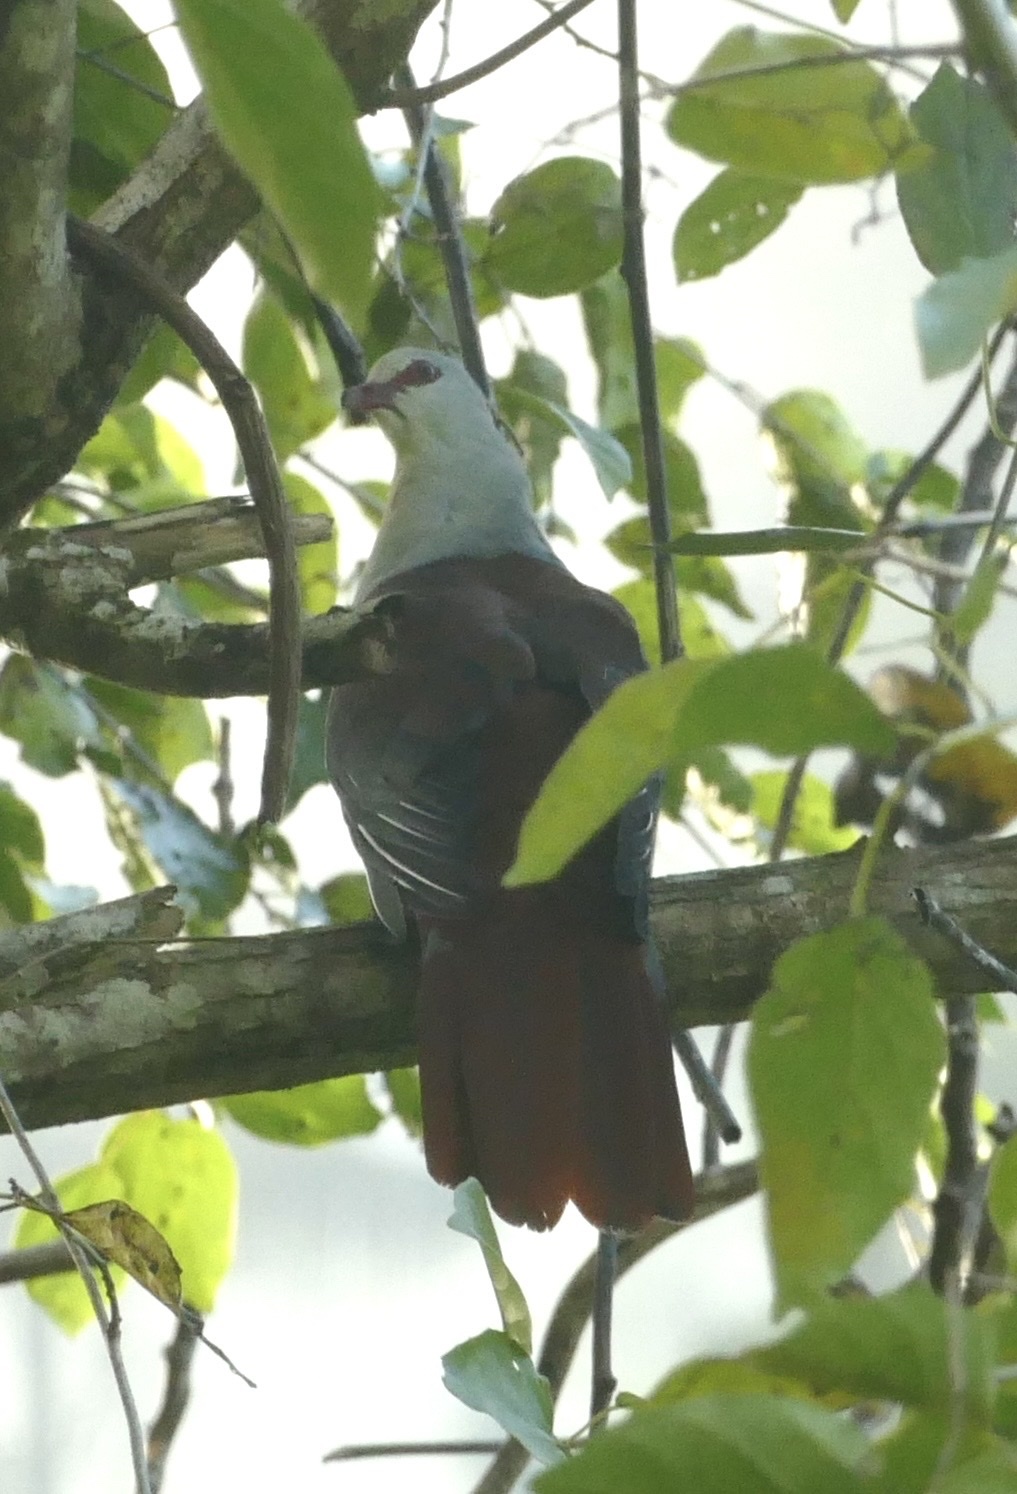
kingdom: Animalia
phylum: Chordata
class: Aves
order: Columbiformes
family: Columbidae
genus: Reinwardtoena
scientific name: Reinwardtoena reinwardti
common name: Great cuckoo-dove
